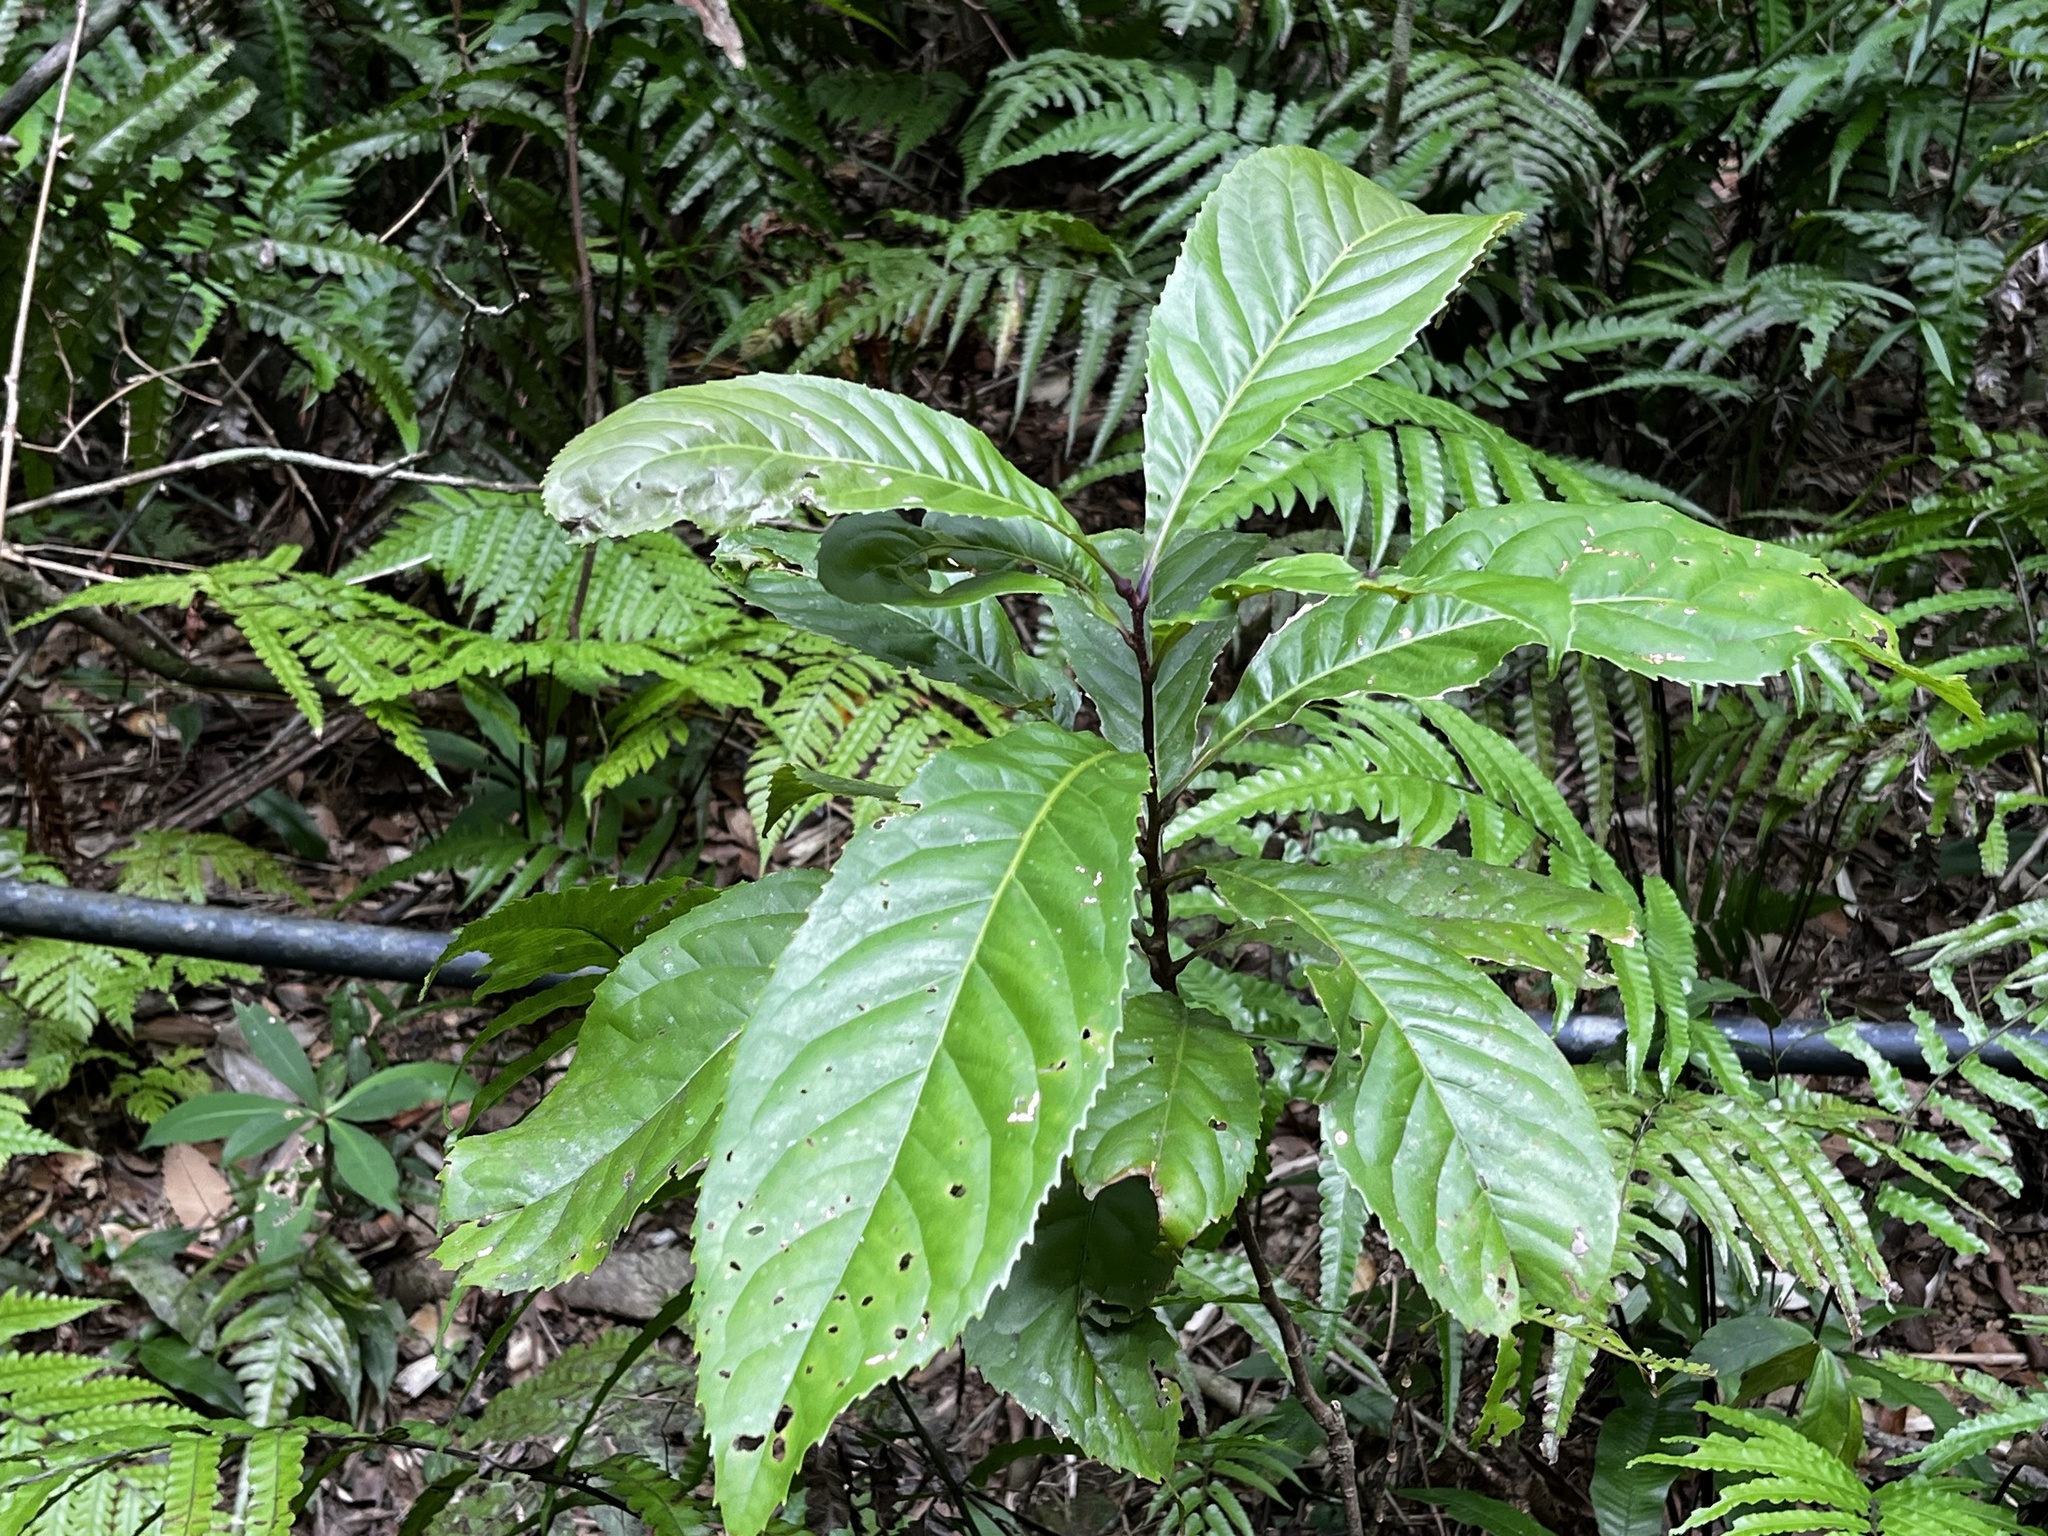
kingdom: Plantae
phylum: Tracheophyta
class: Magnoliopsida
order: Proteales
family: Proteaceae
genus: Helicia
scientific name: Helicia formosana
